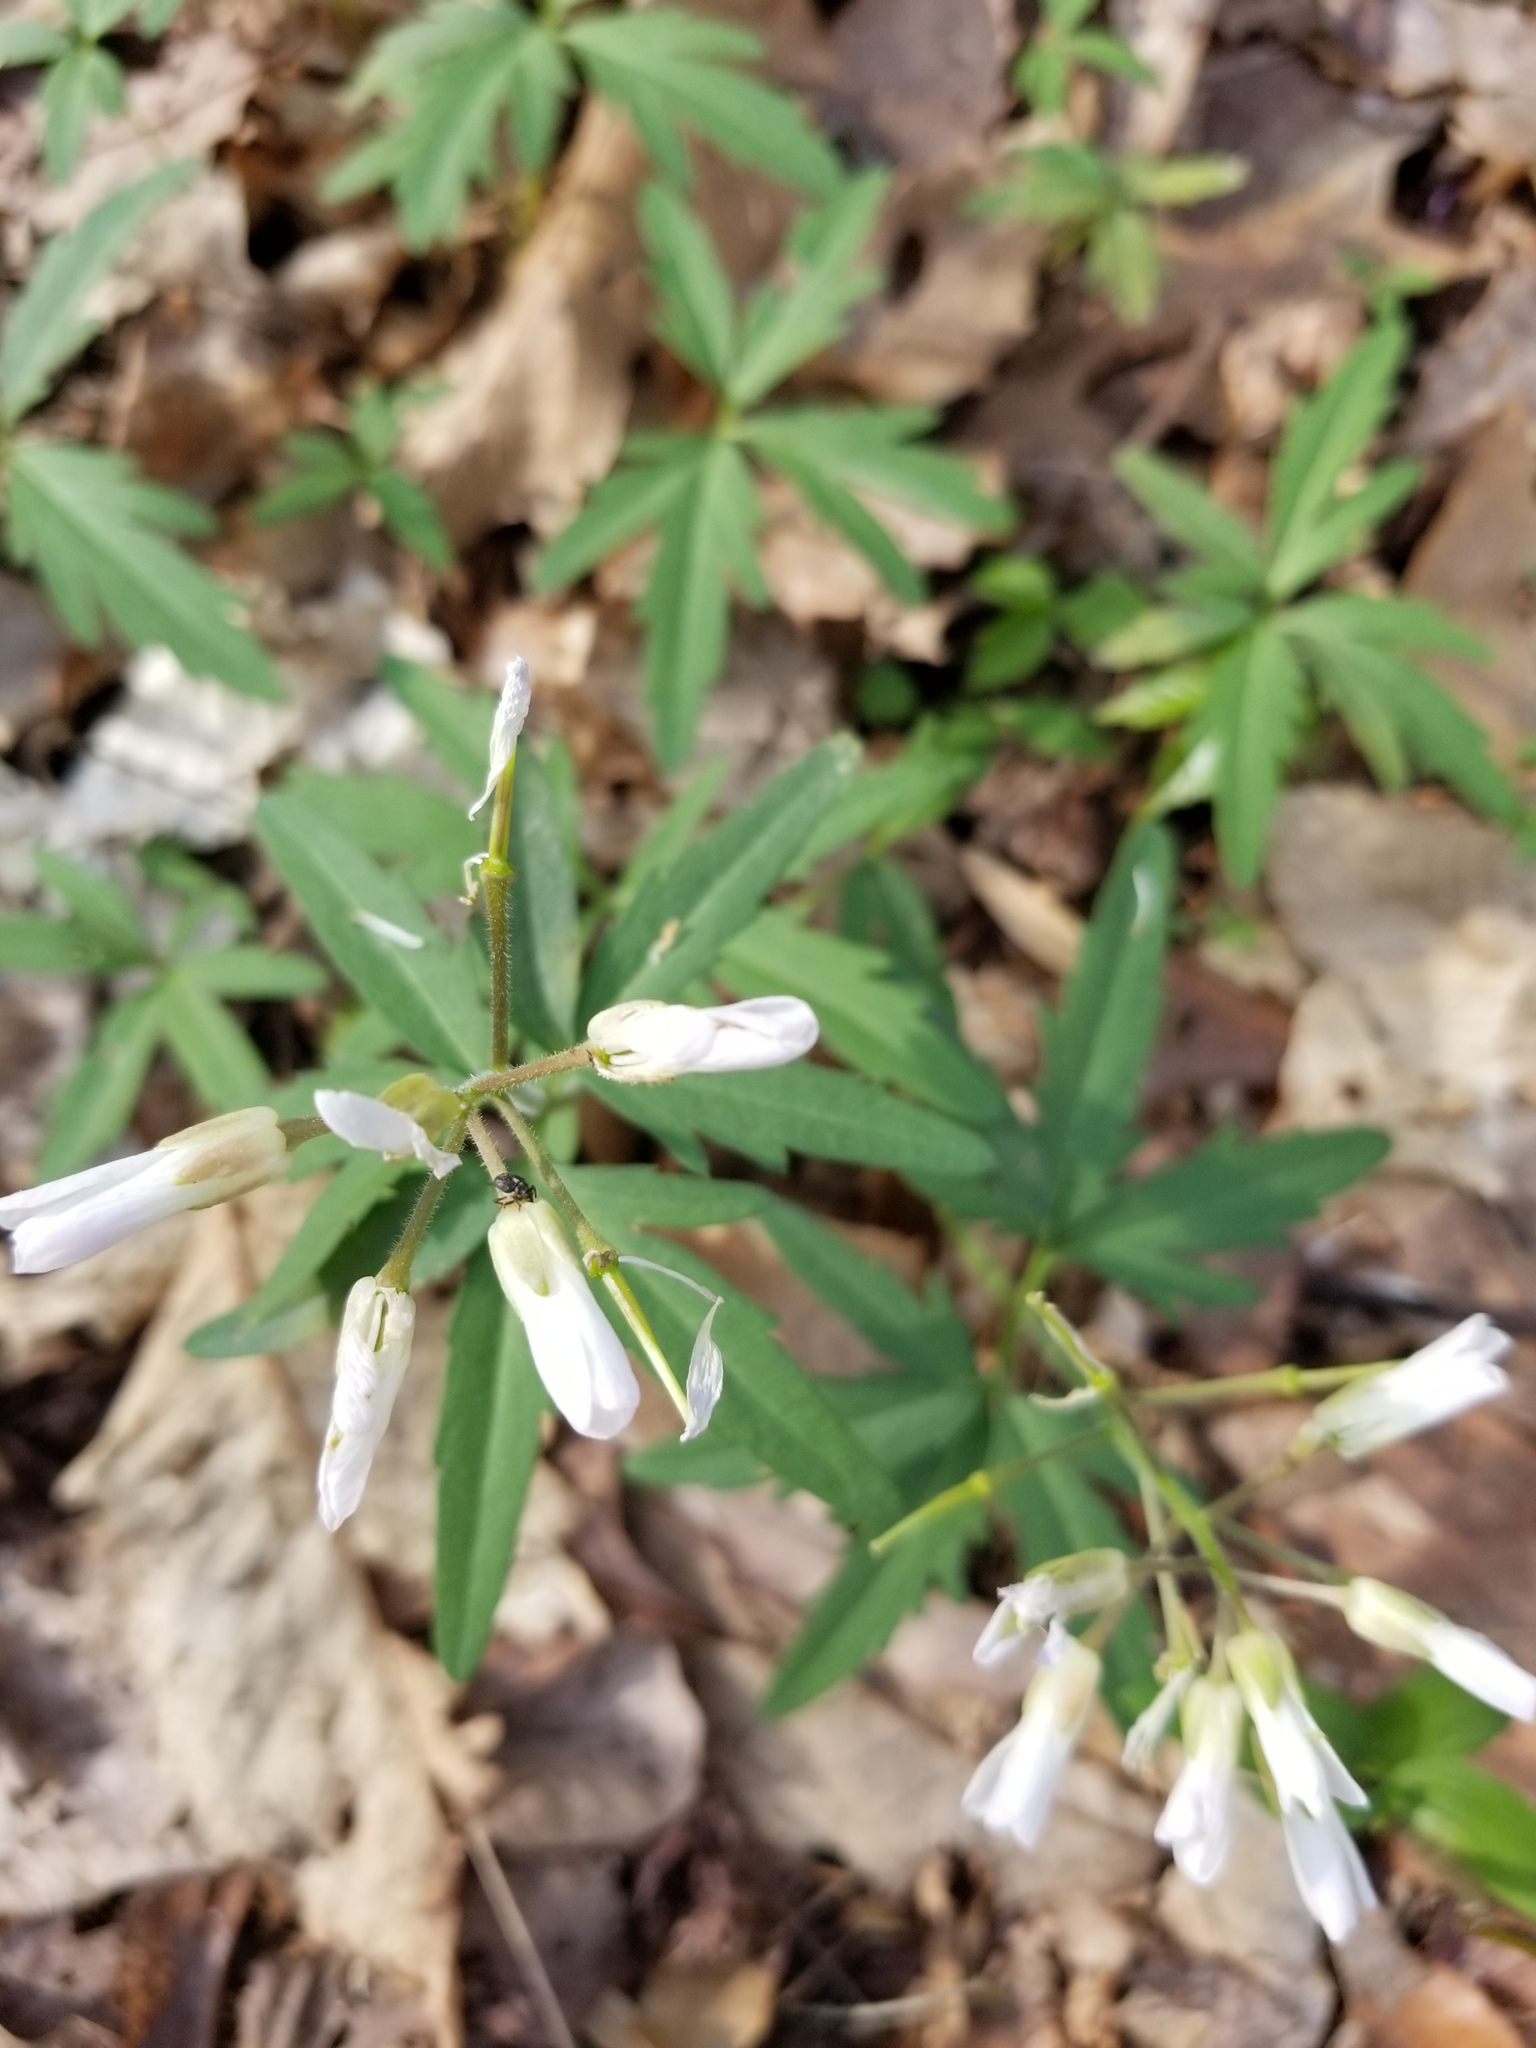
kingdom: Plantae
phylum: Tracheophyta
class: Magnoliopsida
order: Brassicales
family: Brassicaceae
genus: Cardamine
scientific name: Cardamine concatenata
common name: Cut-leaf toothcup
